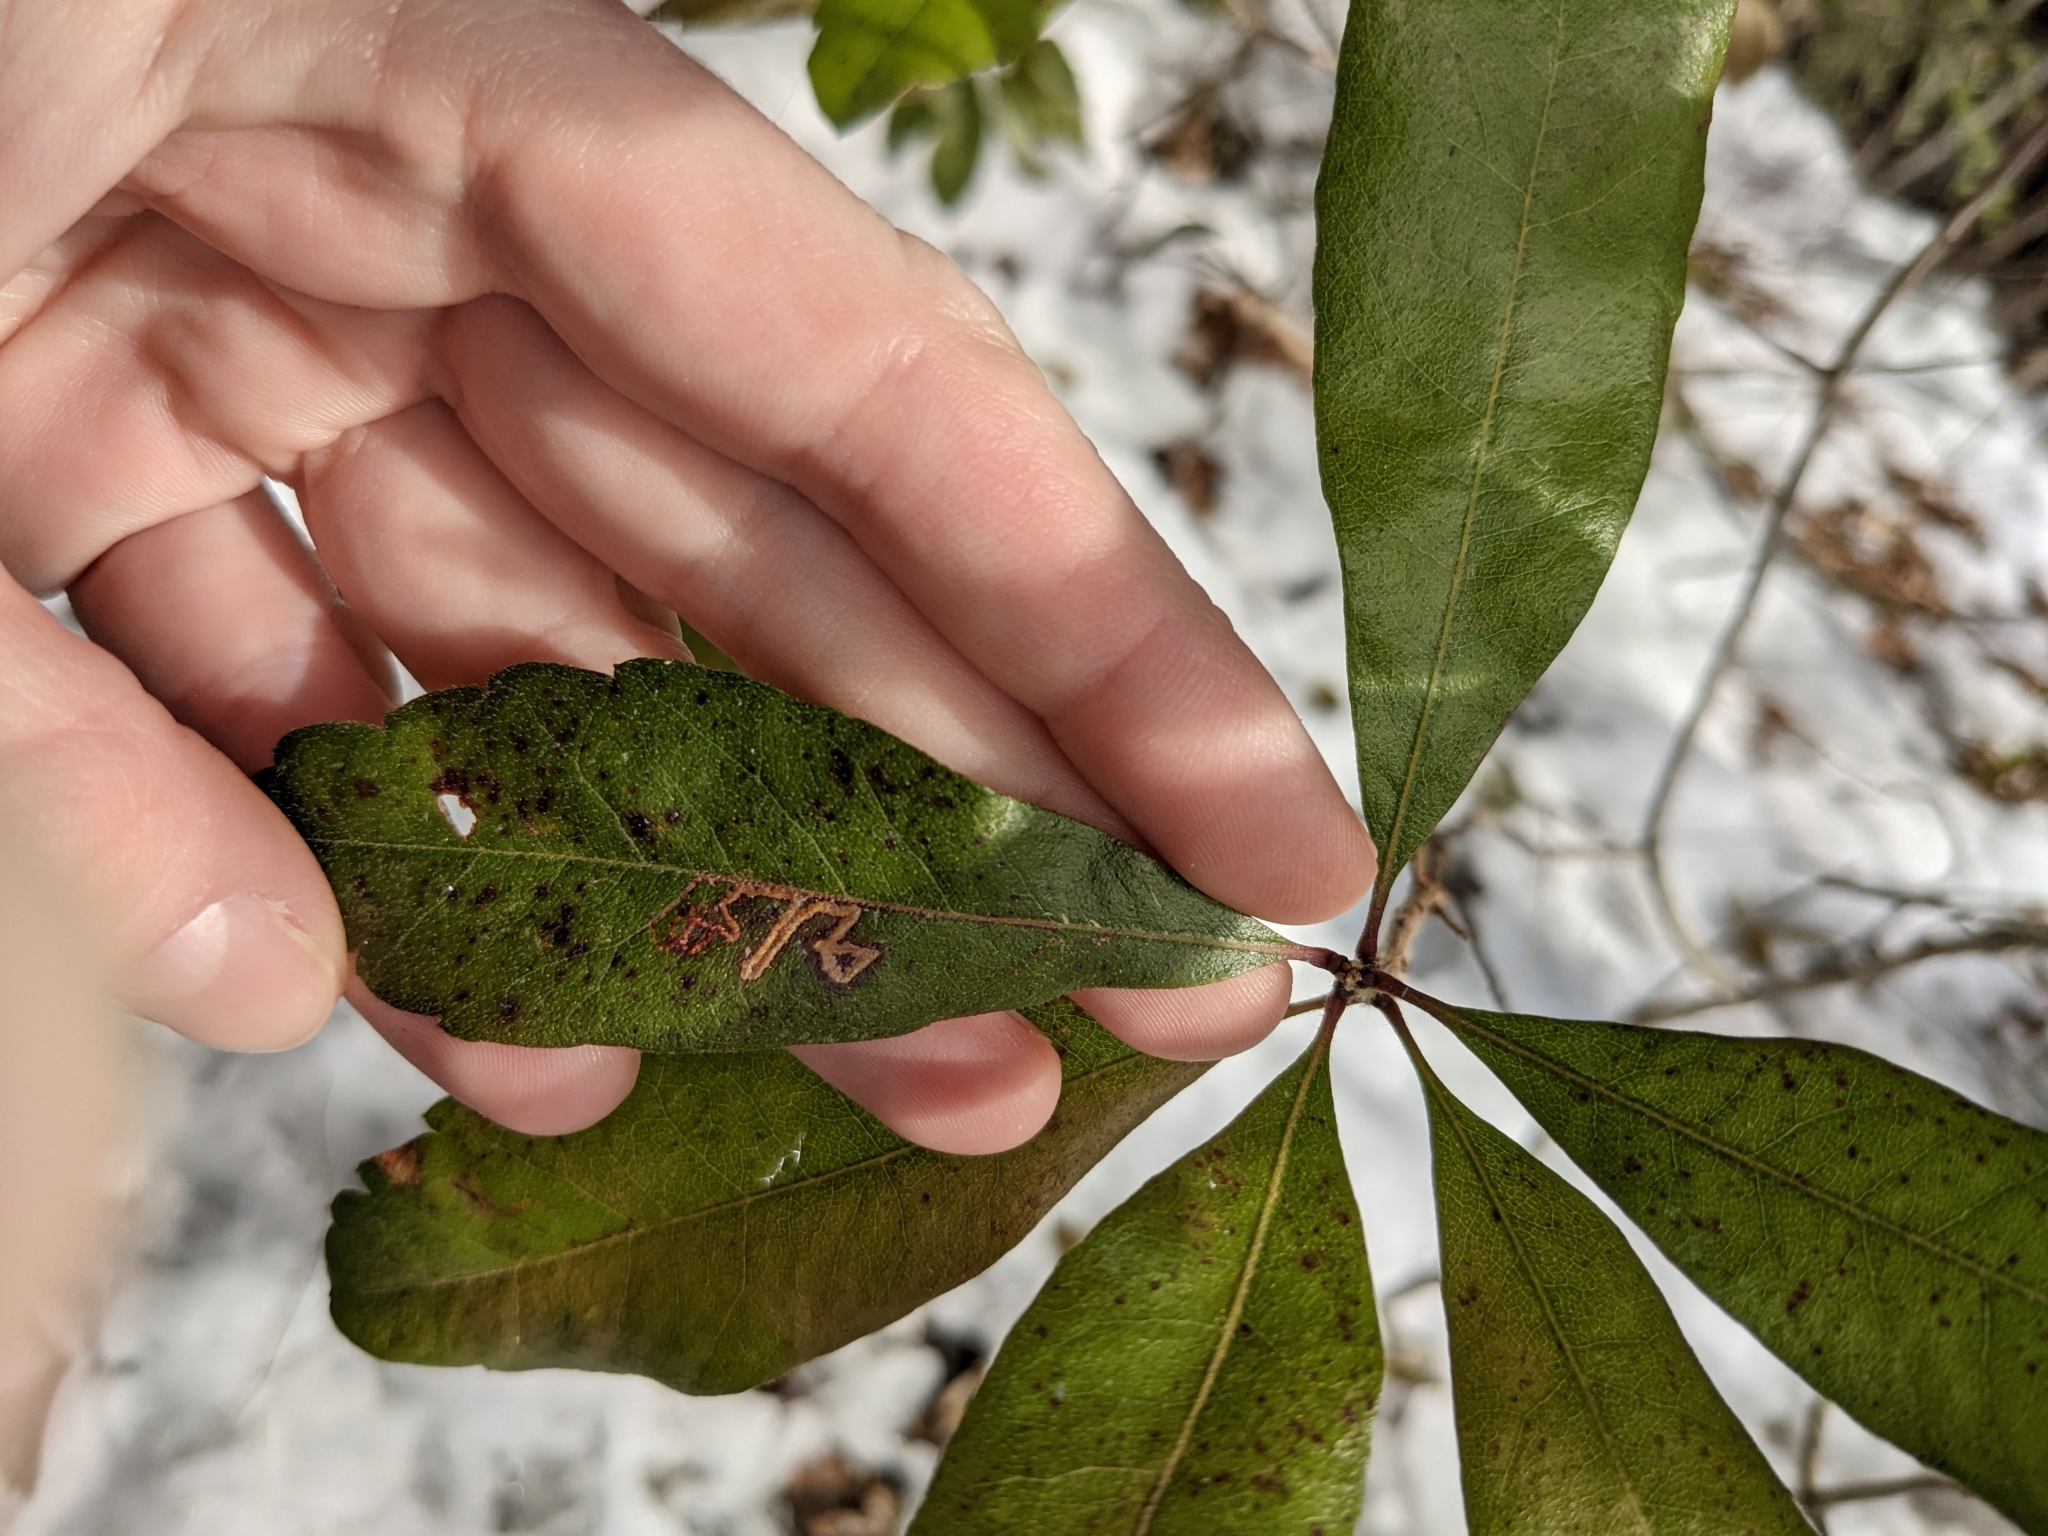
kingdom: Plantae
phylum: Tracheophyta
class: Magnoliopsida
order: Fagales
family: Myricaceae
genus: Morella
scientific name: Morella pensylvanica
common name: Northern bayberry
